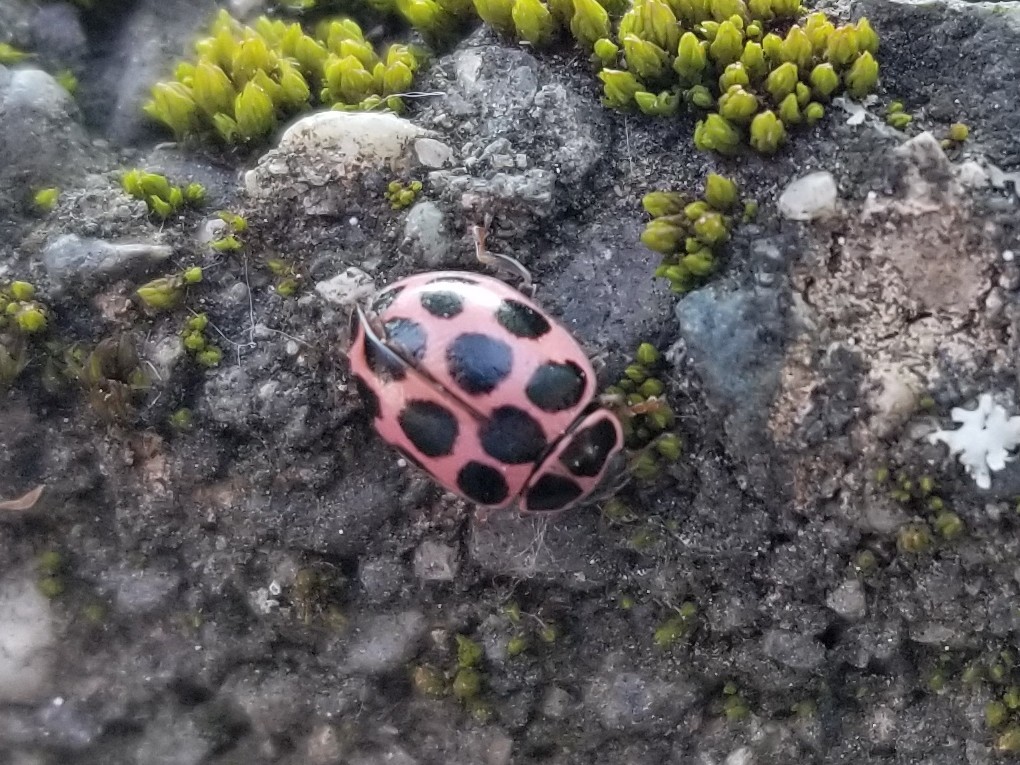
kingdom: Animalia
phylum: Arthropoda
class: Insecta
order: Coleoptera
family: Coccinellidae
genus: Calvia
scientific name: Calvia quatuordecimguttata
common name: Cream-spot ladybird
